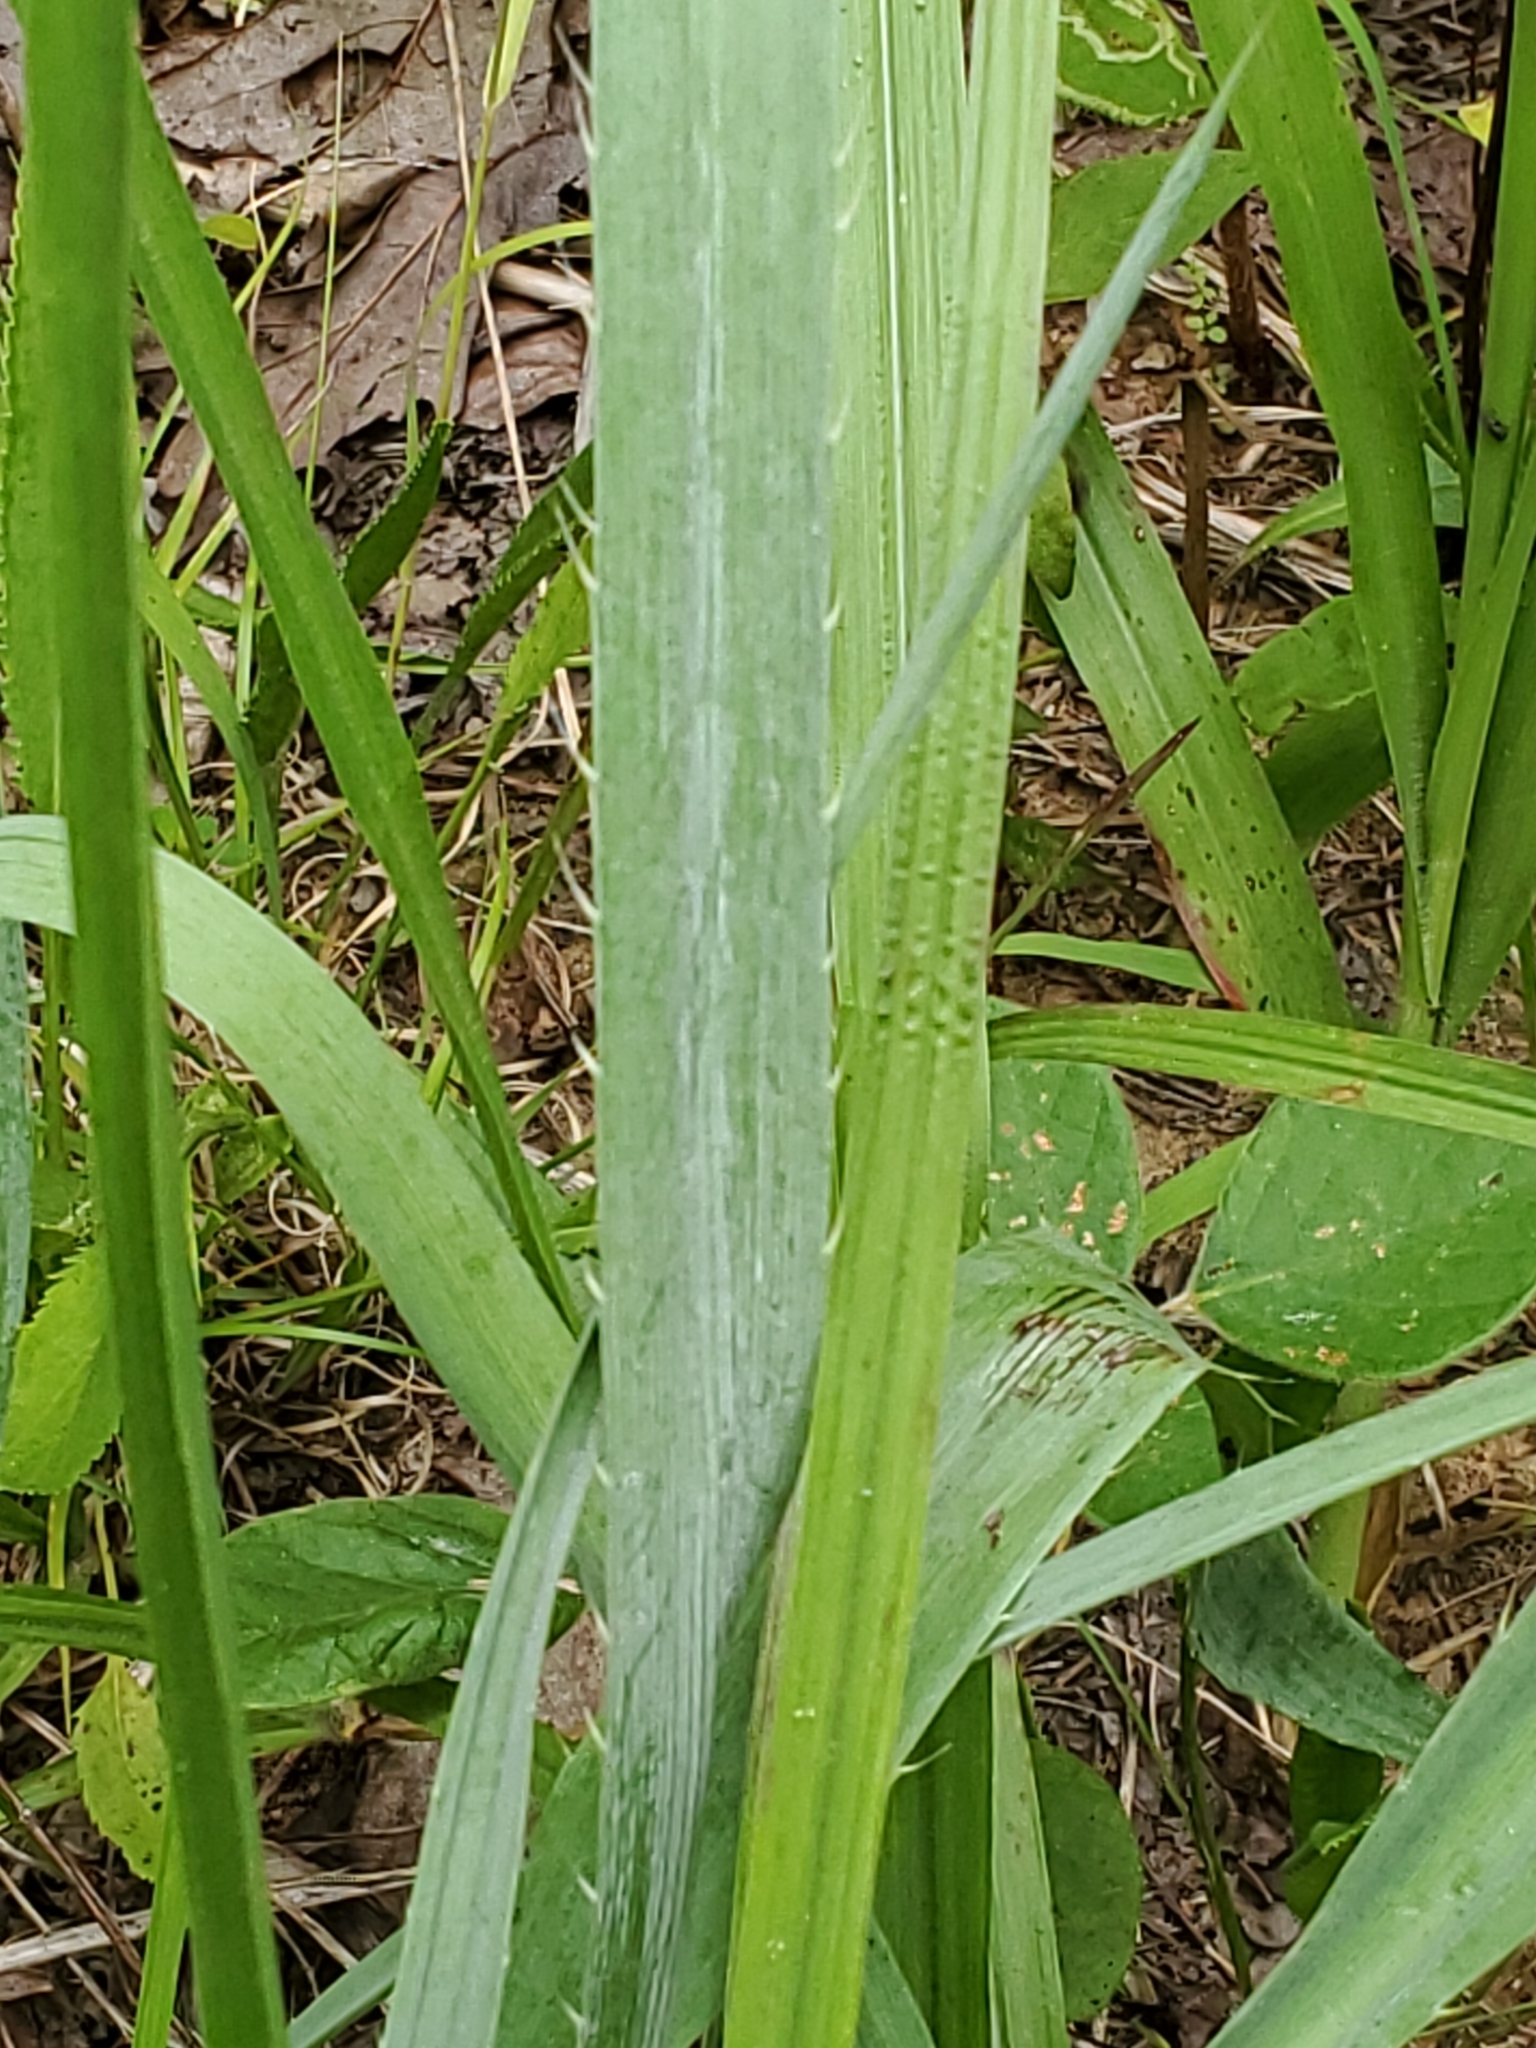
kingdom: Plantae
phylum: Tracheophyta
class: Magnoliopsida
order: Apiales
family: Apiaceae
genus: Eryngium
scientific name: Eryngium yuccifolium
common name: Button eryngo
